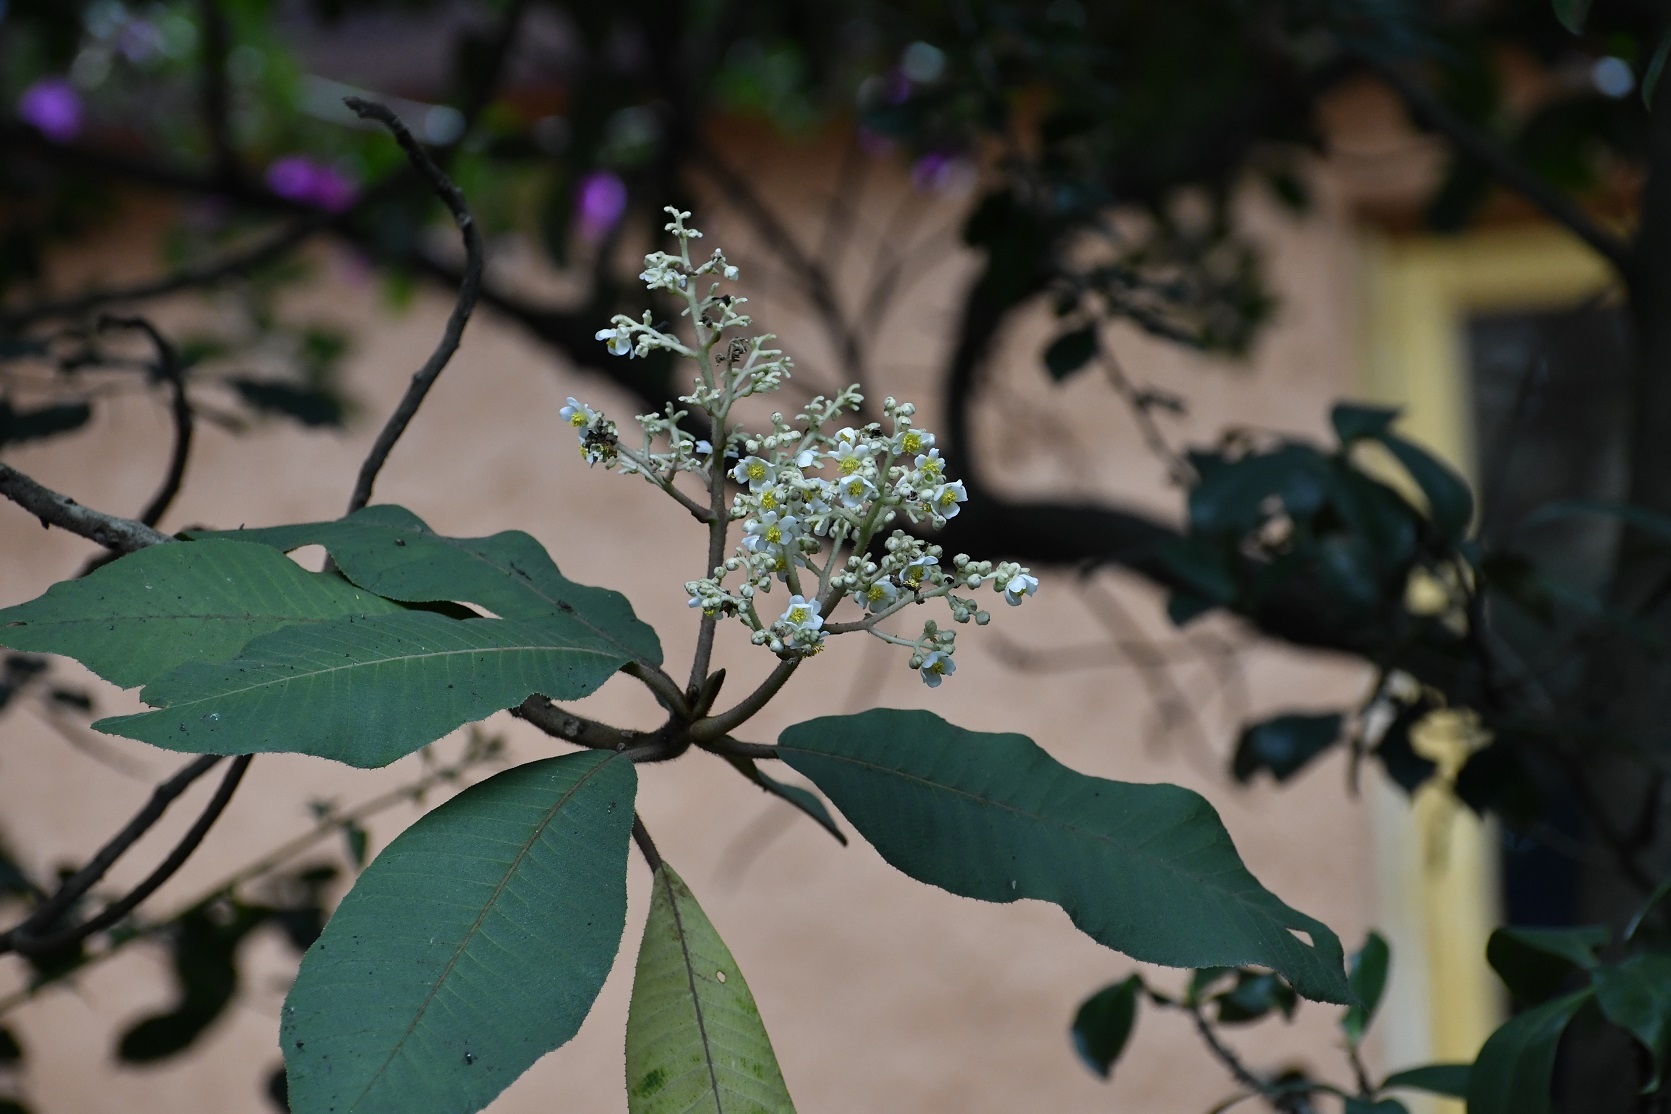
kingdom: Plantae
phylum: Tracheophyta
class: Magnoliopsida
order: Ericales
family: Actinidiaceae
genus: Saurauia
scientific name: Saurauia scabrida
